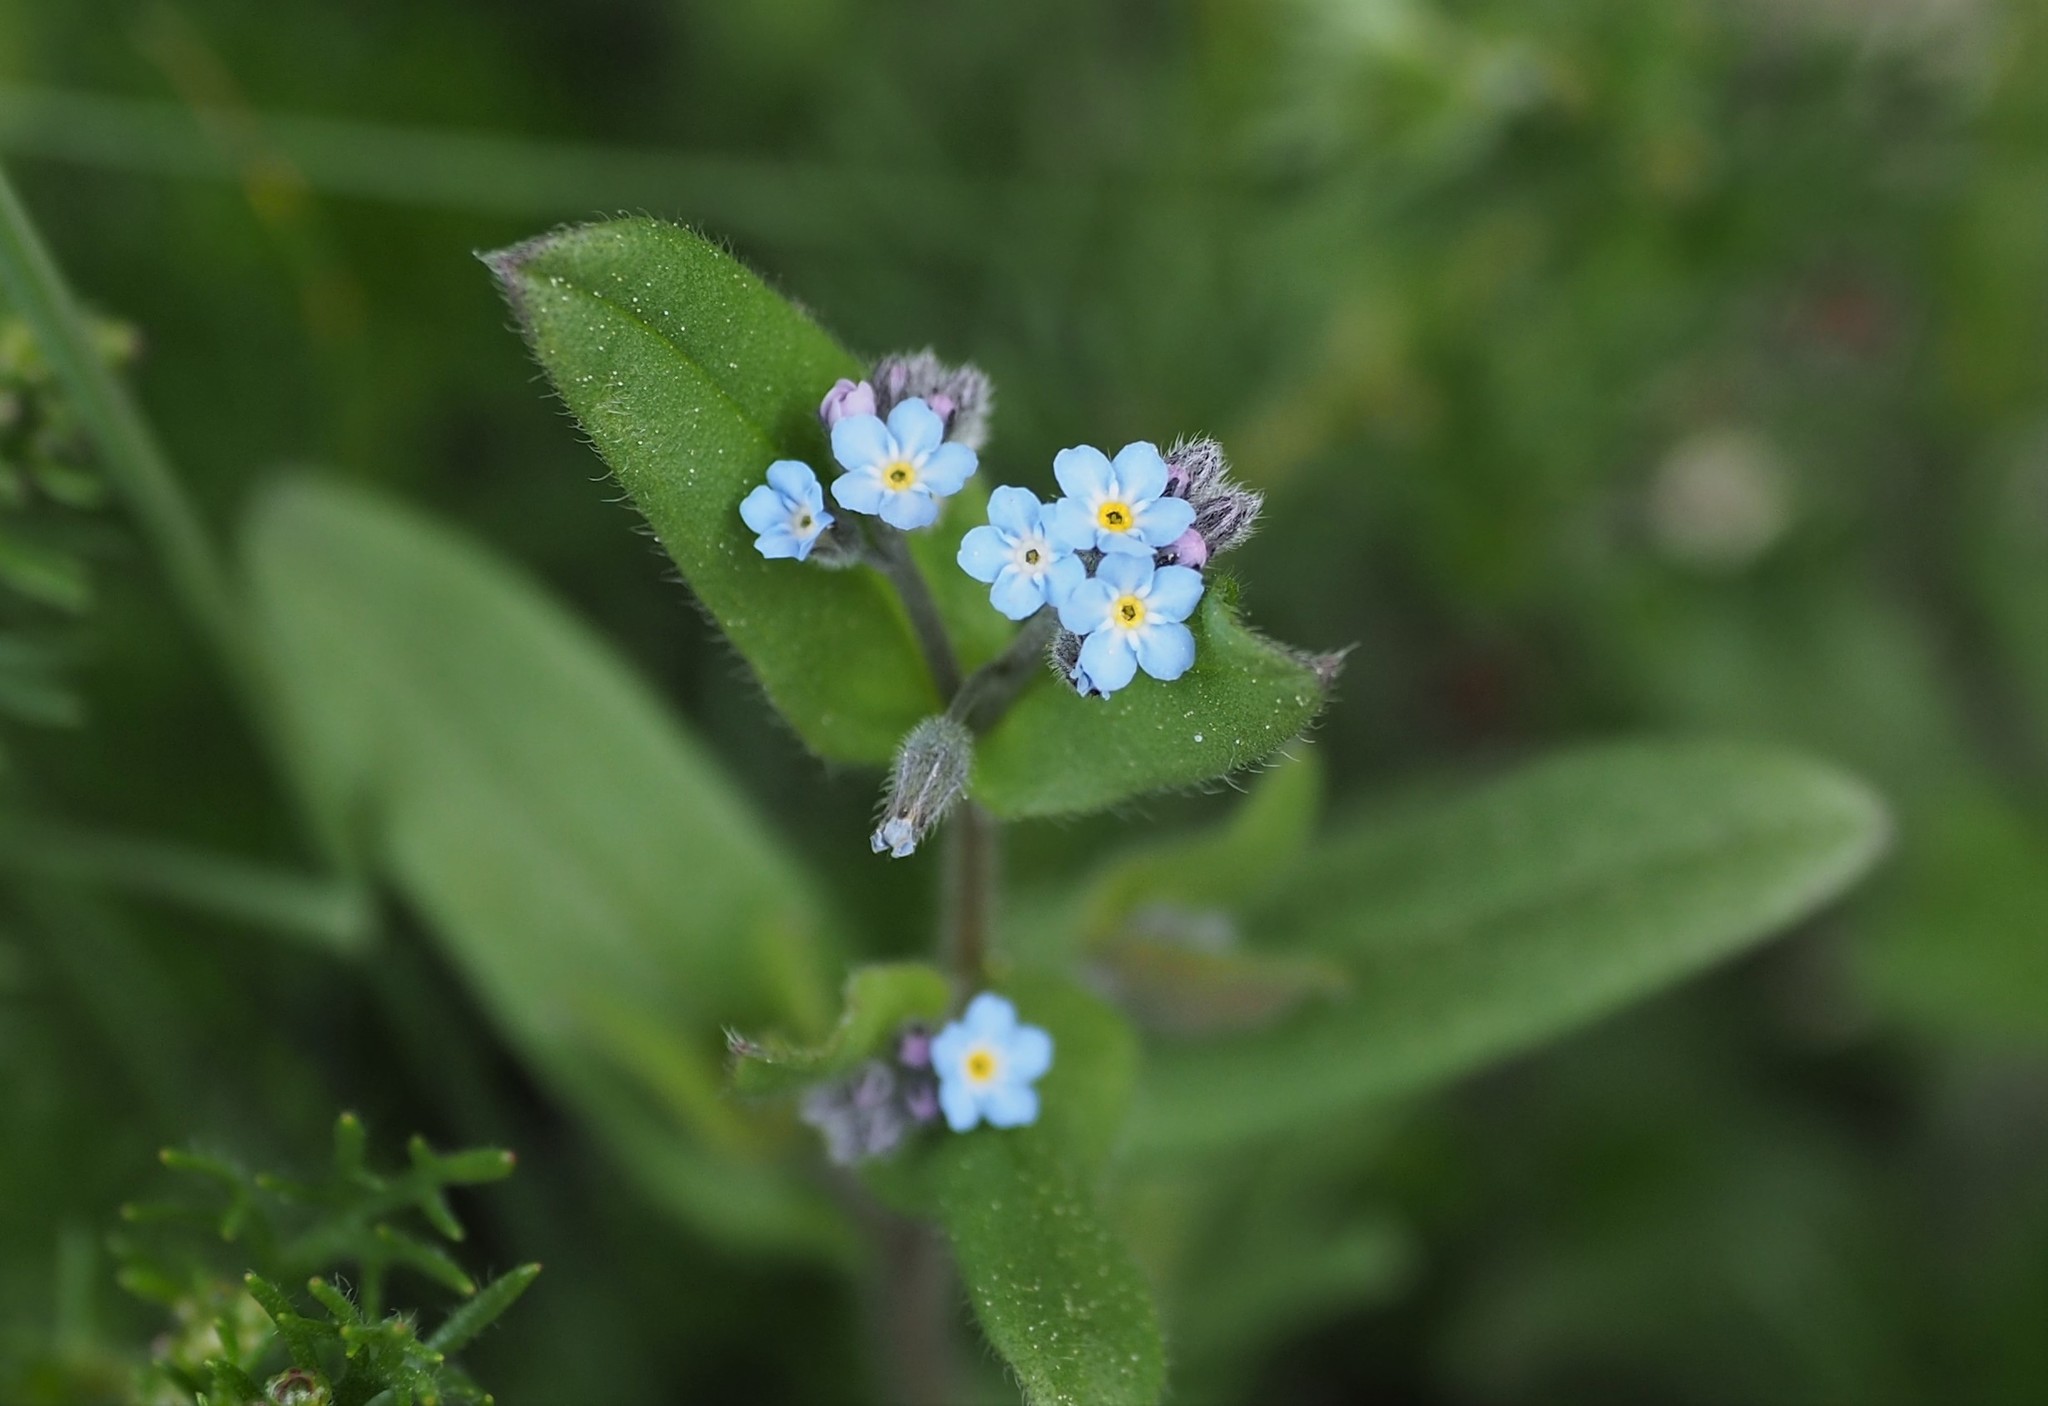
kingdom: Plantae
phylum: Tracheophyta
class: Magnoliopsida
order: Boraginales
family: Boraginaceae
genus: Myosotis
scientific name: Myosotis arvensis
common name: Field forget-me-not
